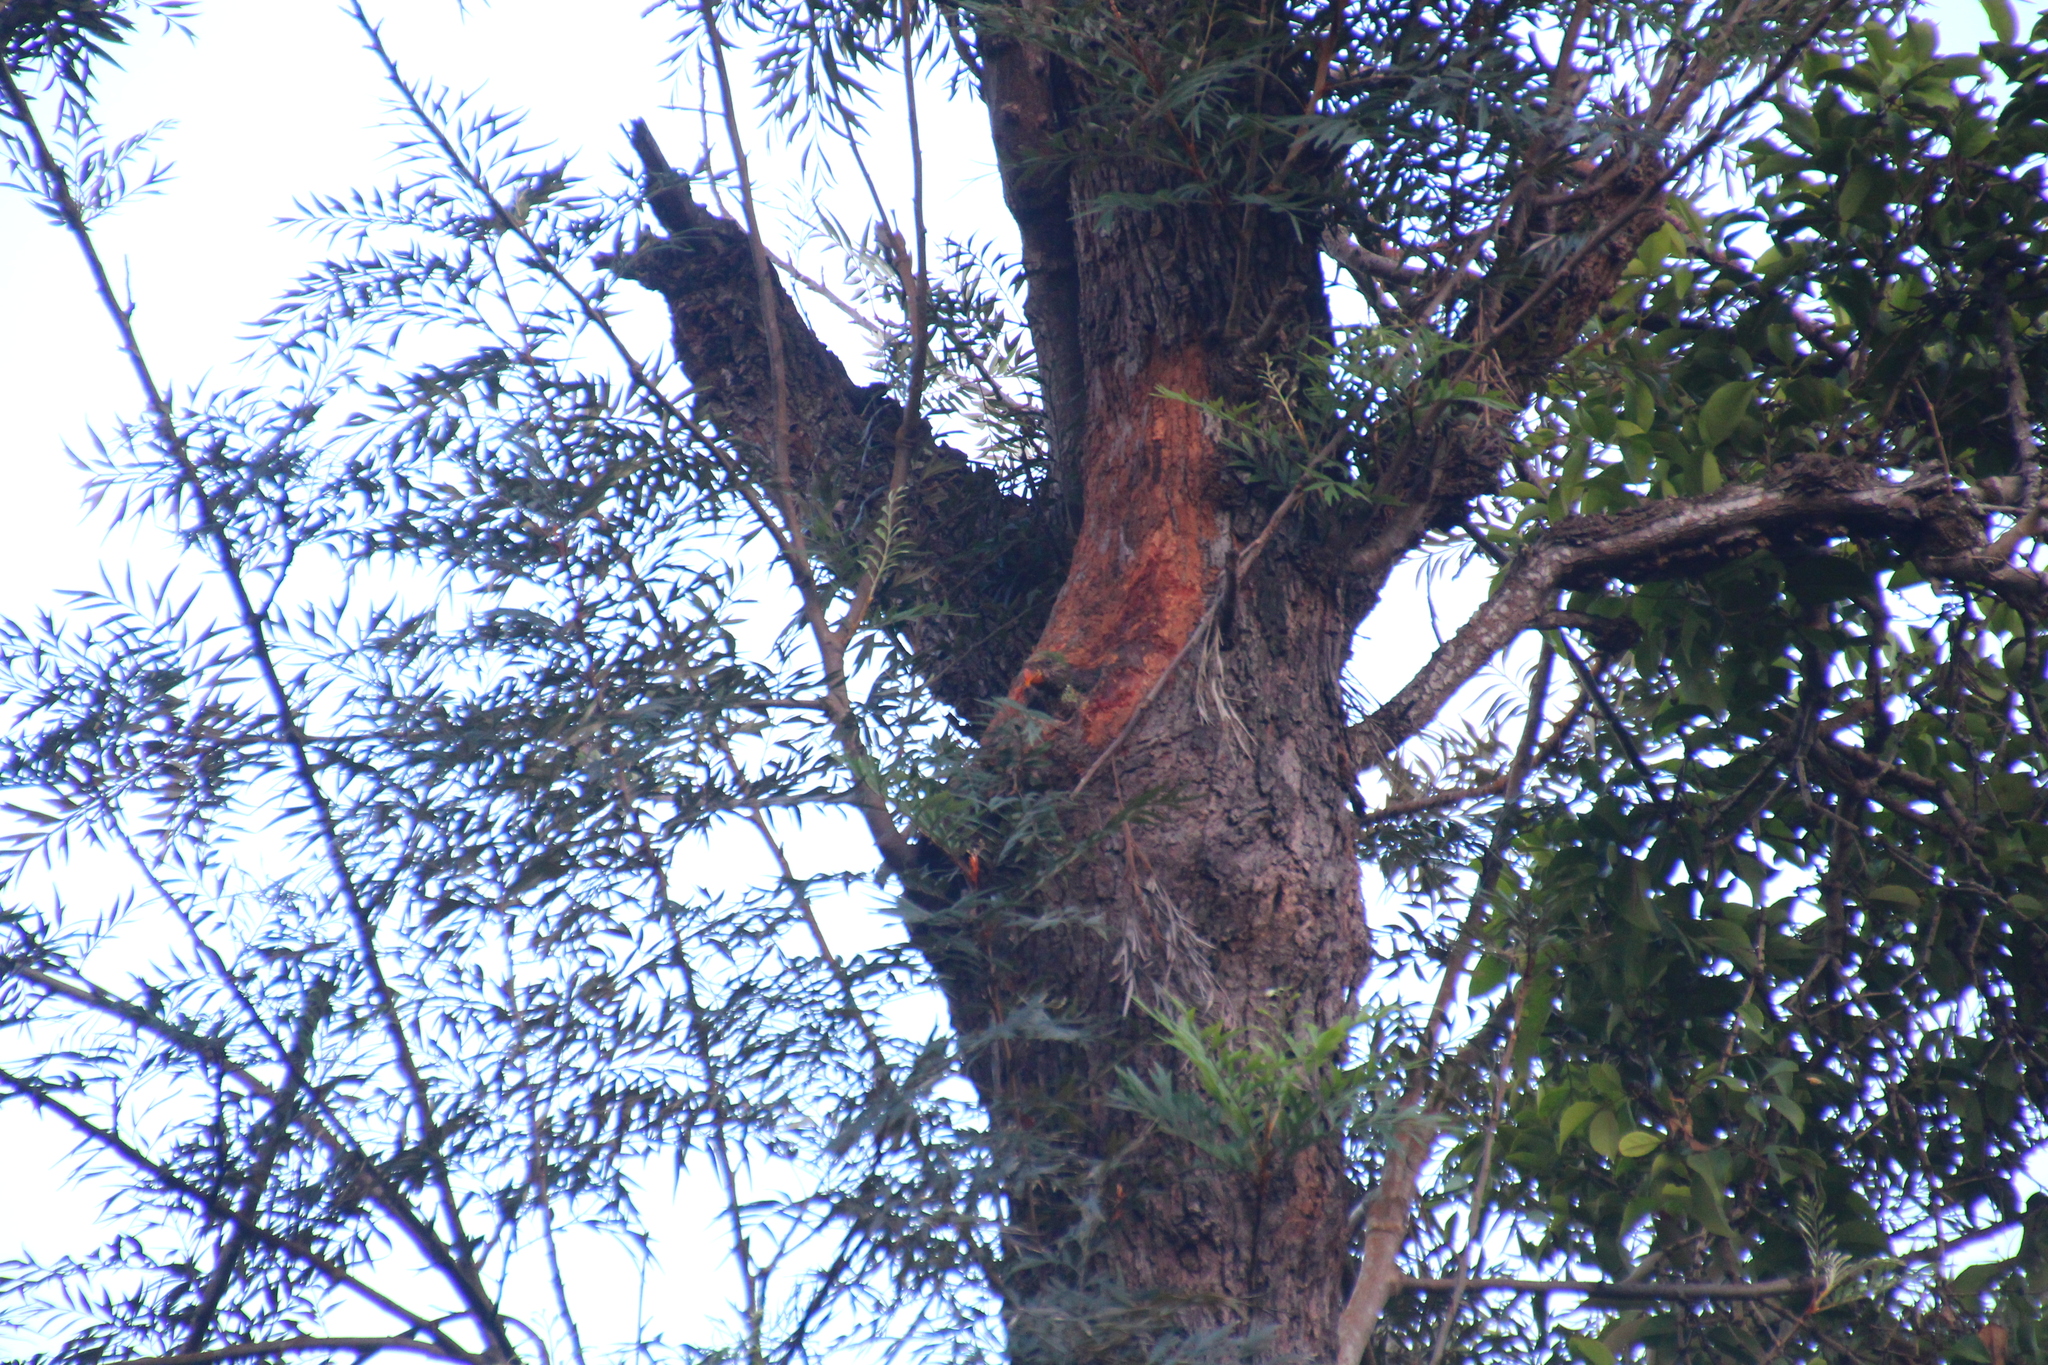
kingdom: Animalia
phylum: Chordata
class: Aves
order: Psittaciformes
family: Psittacidae
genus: Psittacula
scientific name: Psittacula alexandri
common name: Red-breasted parakeet
